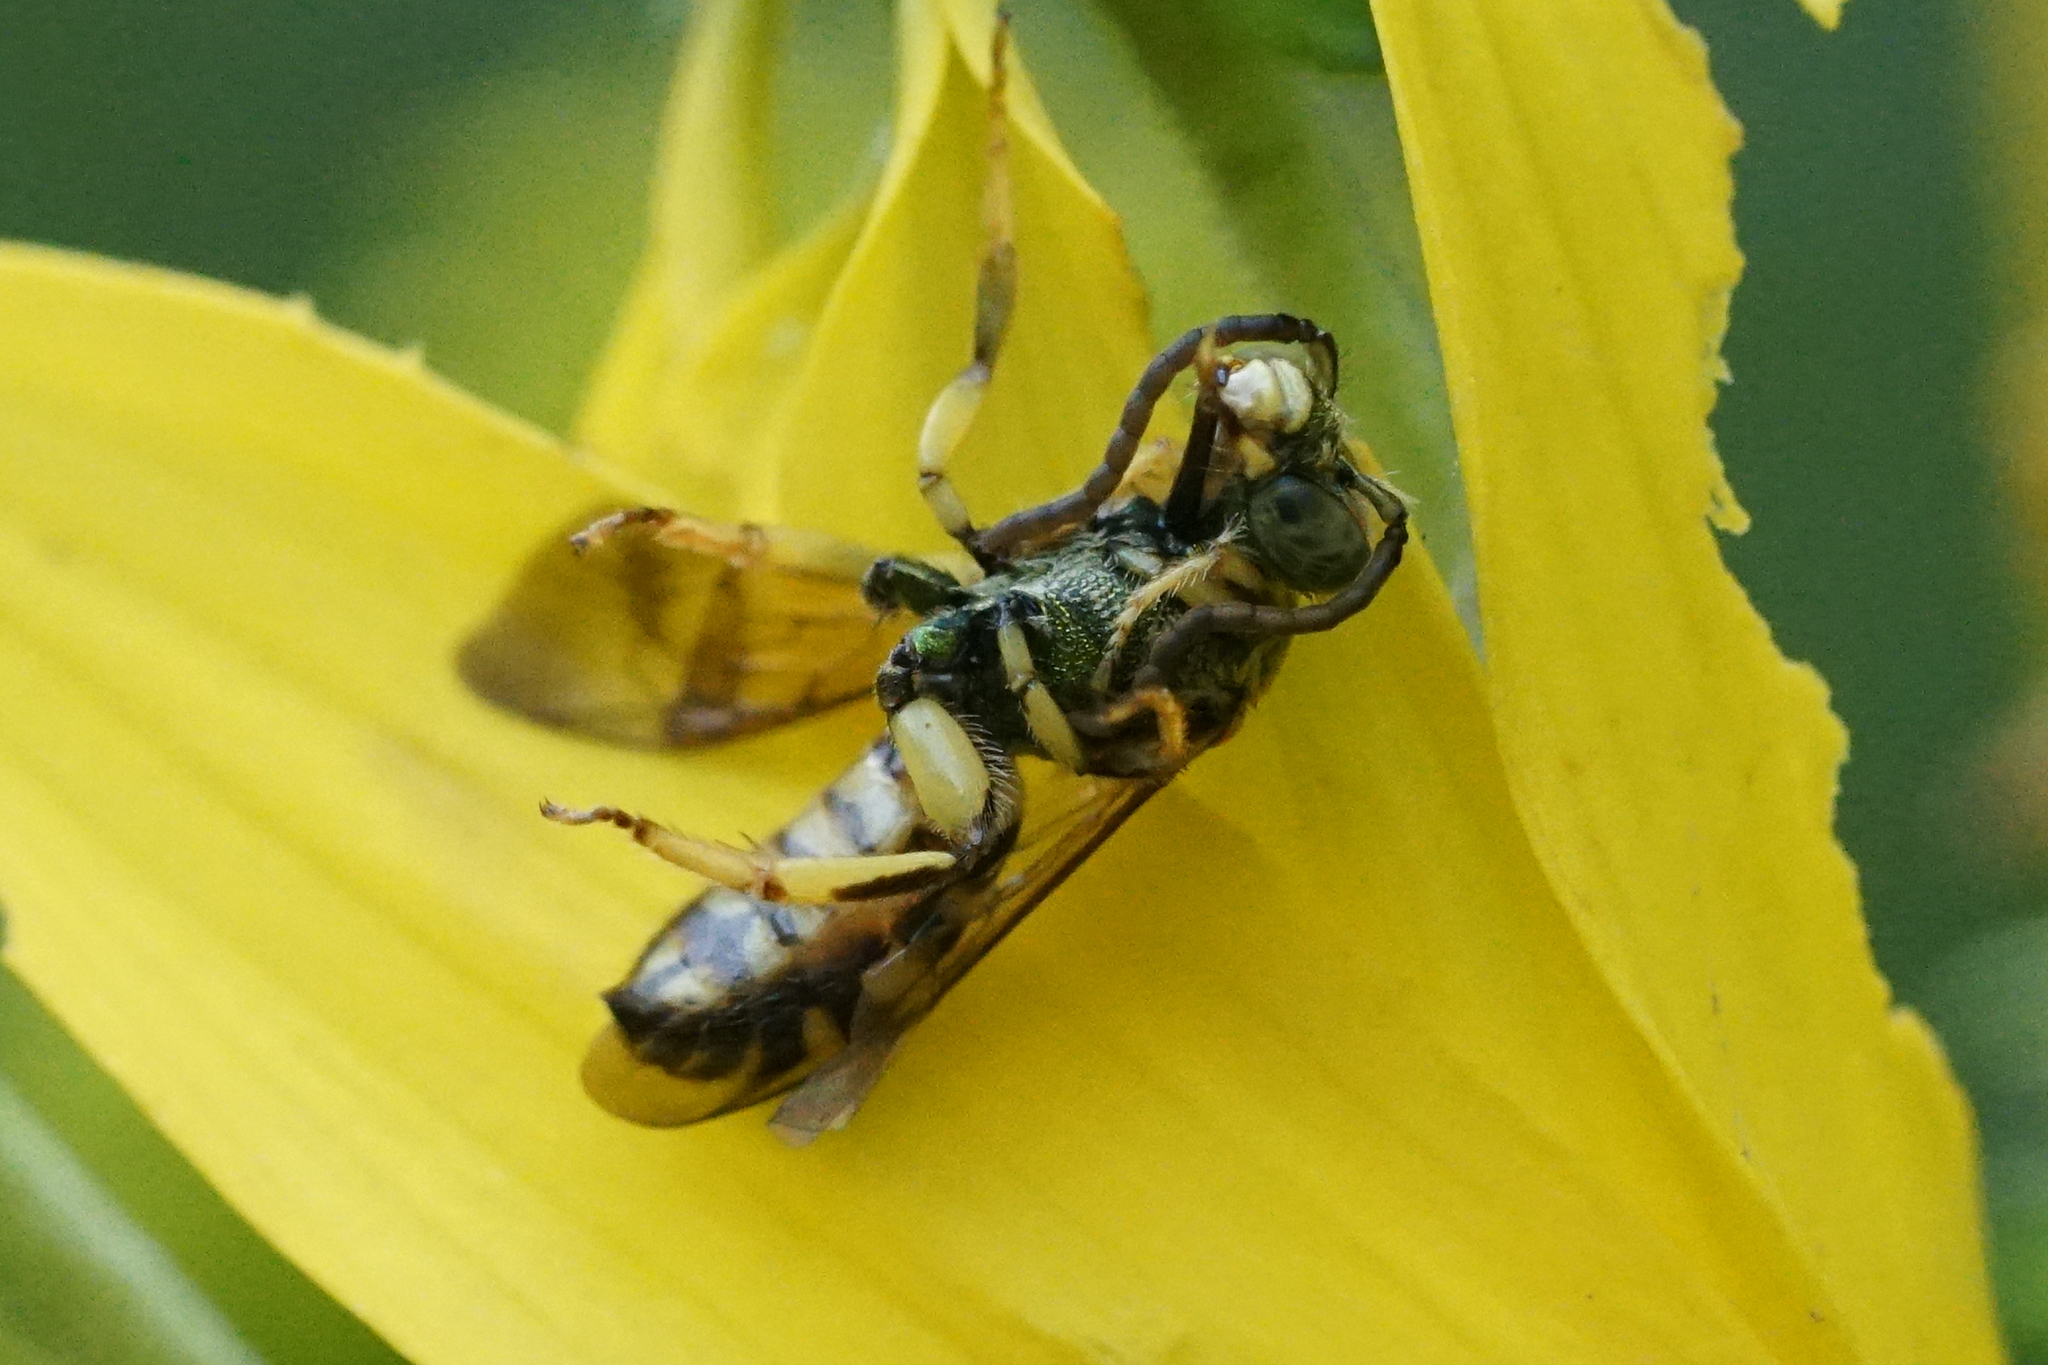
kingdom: Animalia
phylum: Arthropoda
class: Insecta
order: Hymenoptera
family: Halictidae
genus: Agapostemon
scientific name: Agapostemon
